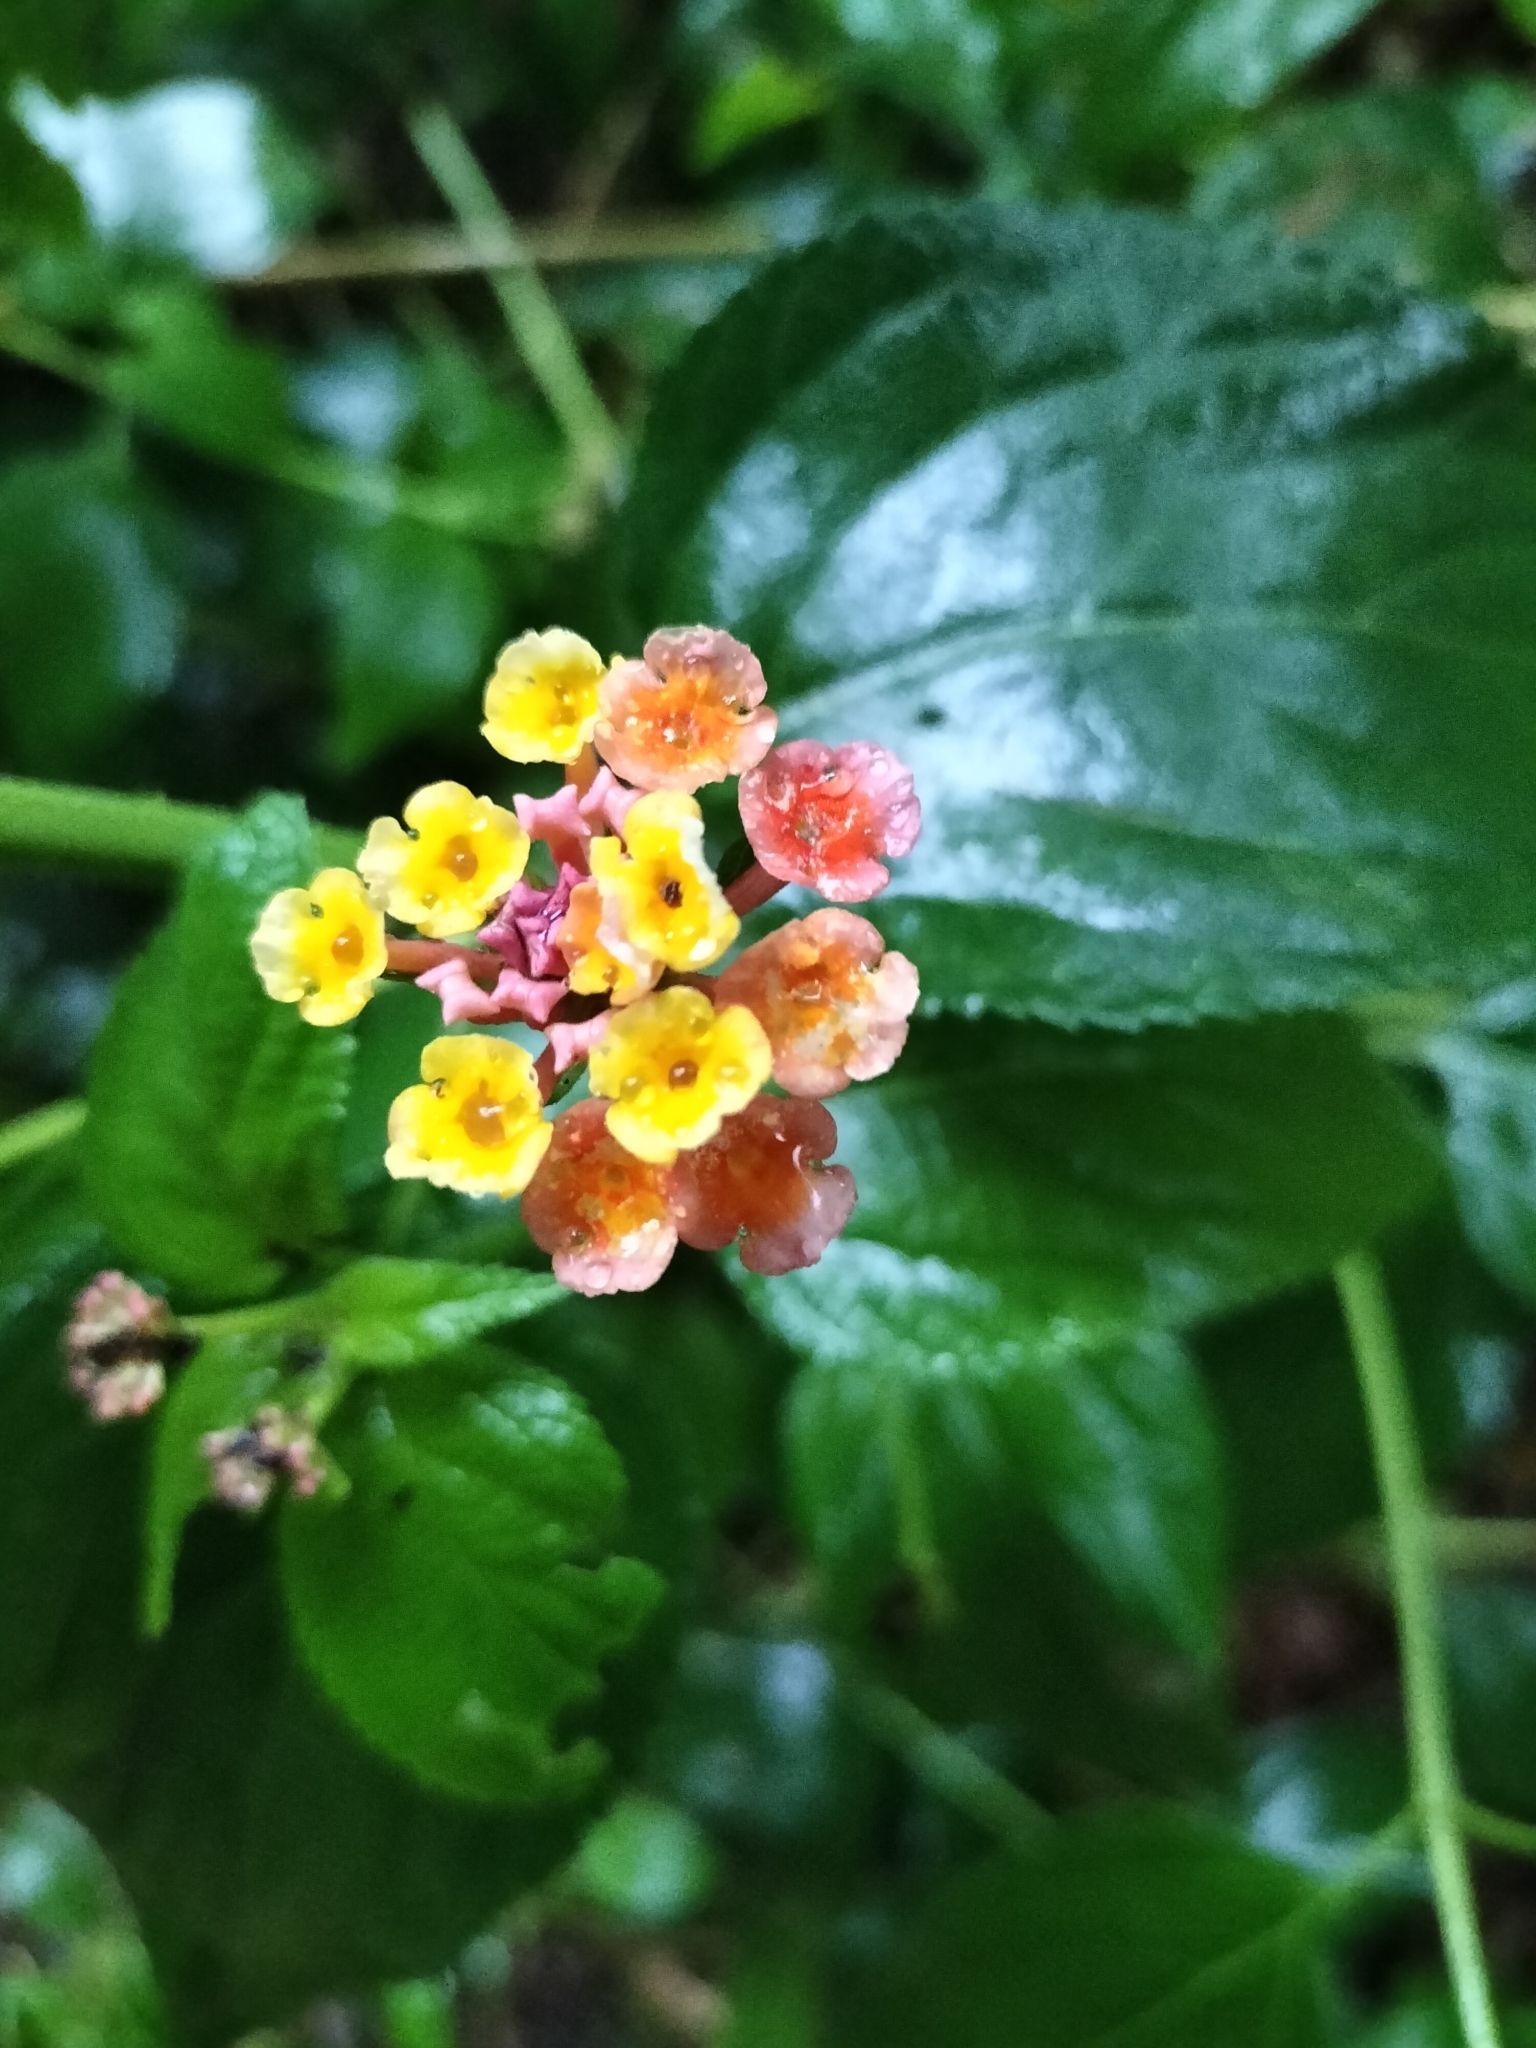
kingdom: Plantae
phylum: Tracheophyta
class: Magnoliopsida
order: Lamiales
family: Verbenaceae
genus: Lantana
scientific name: Lantana camara
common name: Lantana
